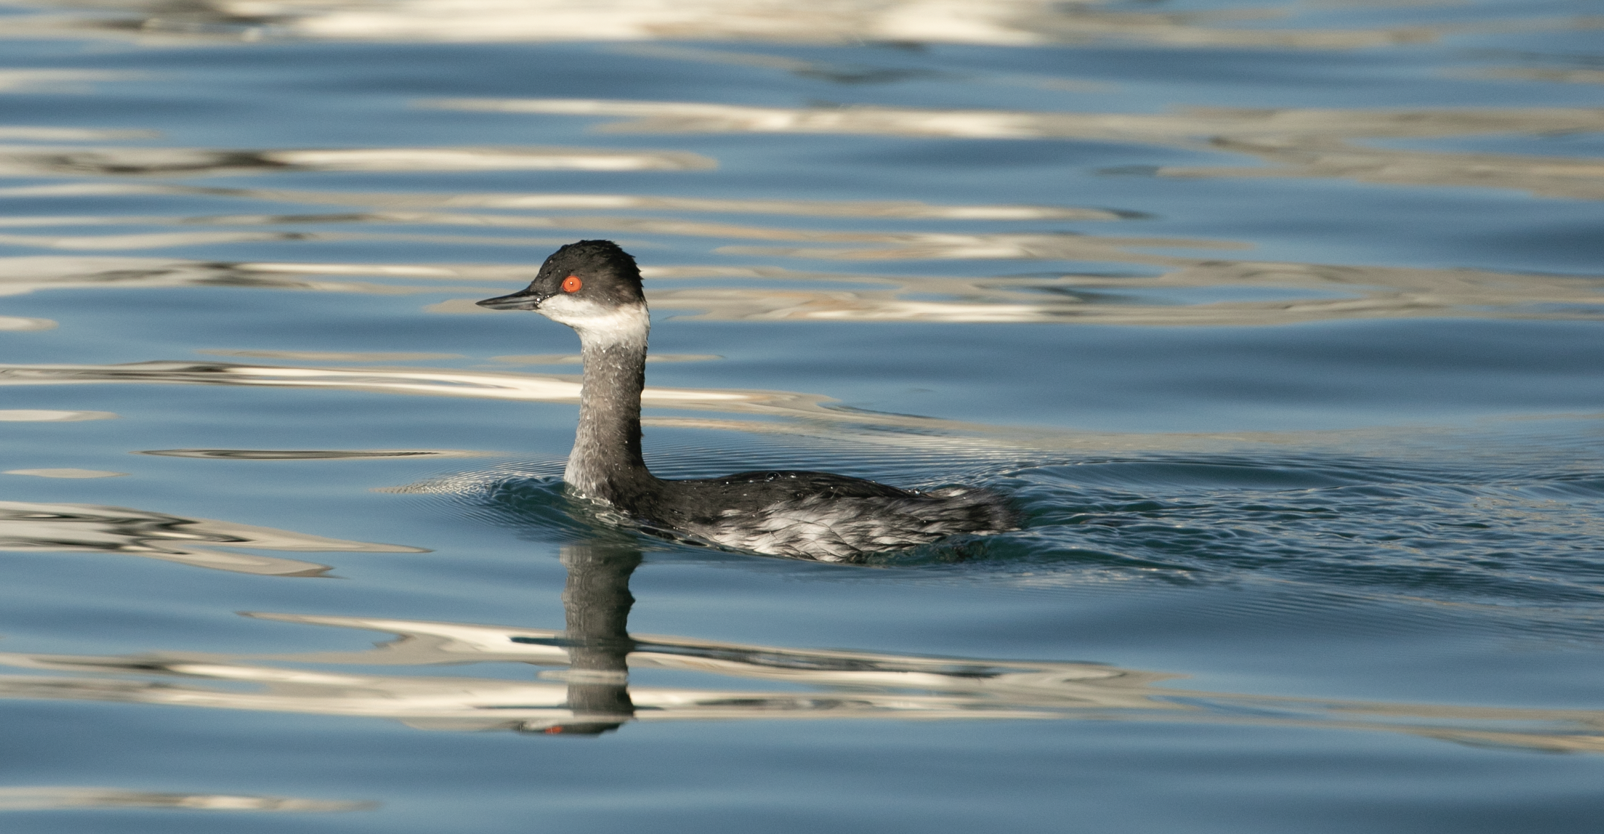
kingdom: Animalia
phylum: Chordata
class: Aves
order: Podicipediformes
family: Podicipedidae
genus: Podiceps
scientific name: Podiceps nigricollis
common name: Black-necked grebe
